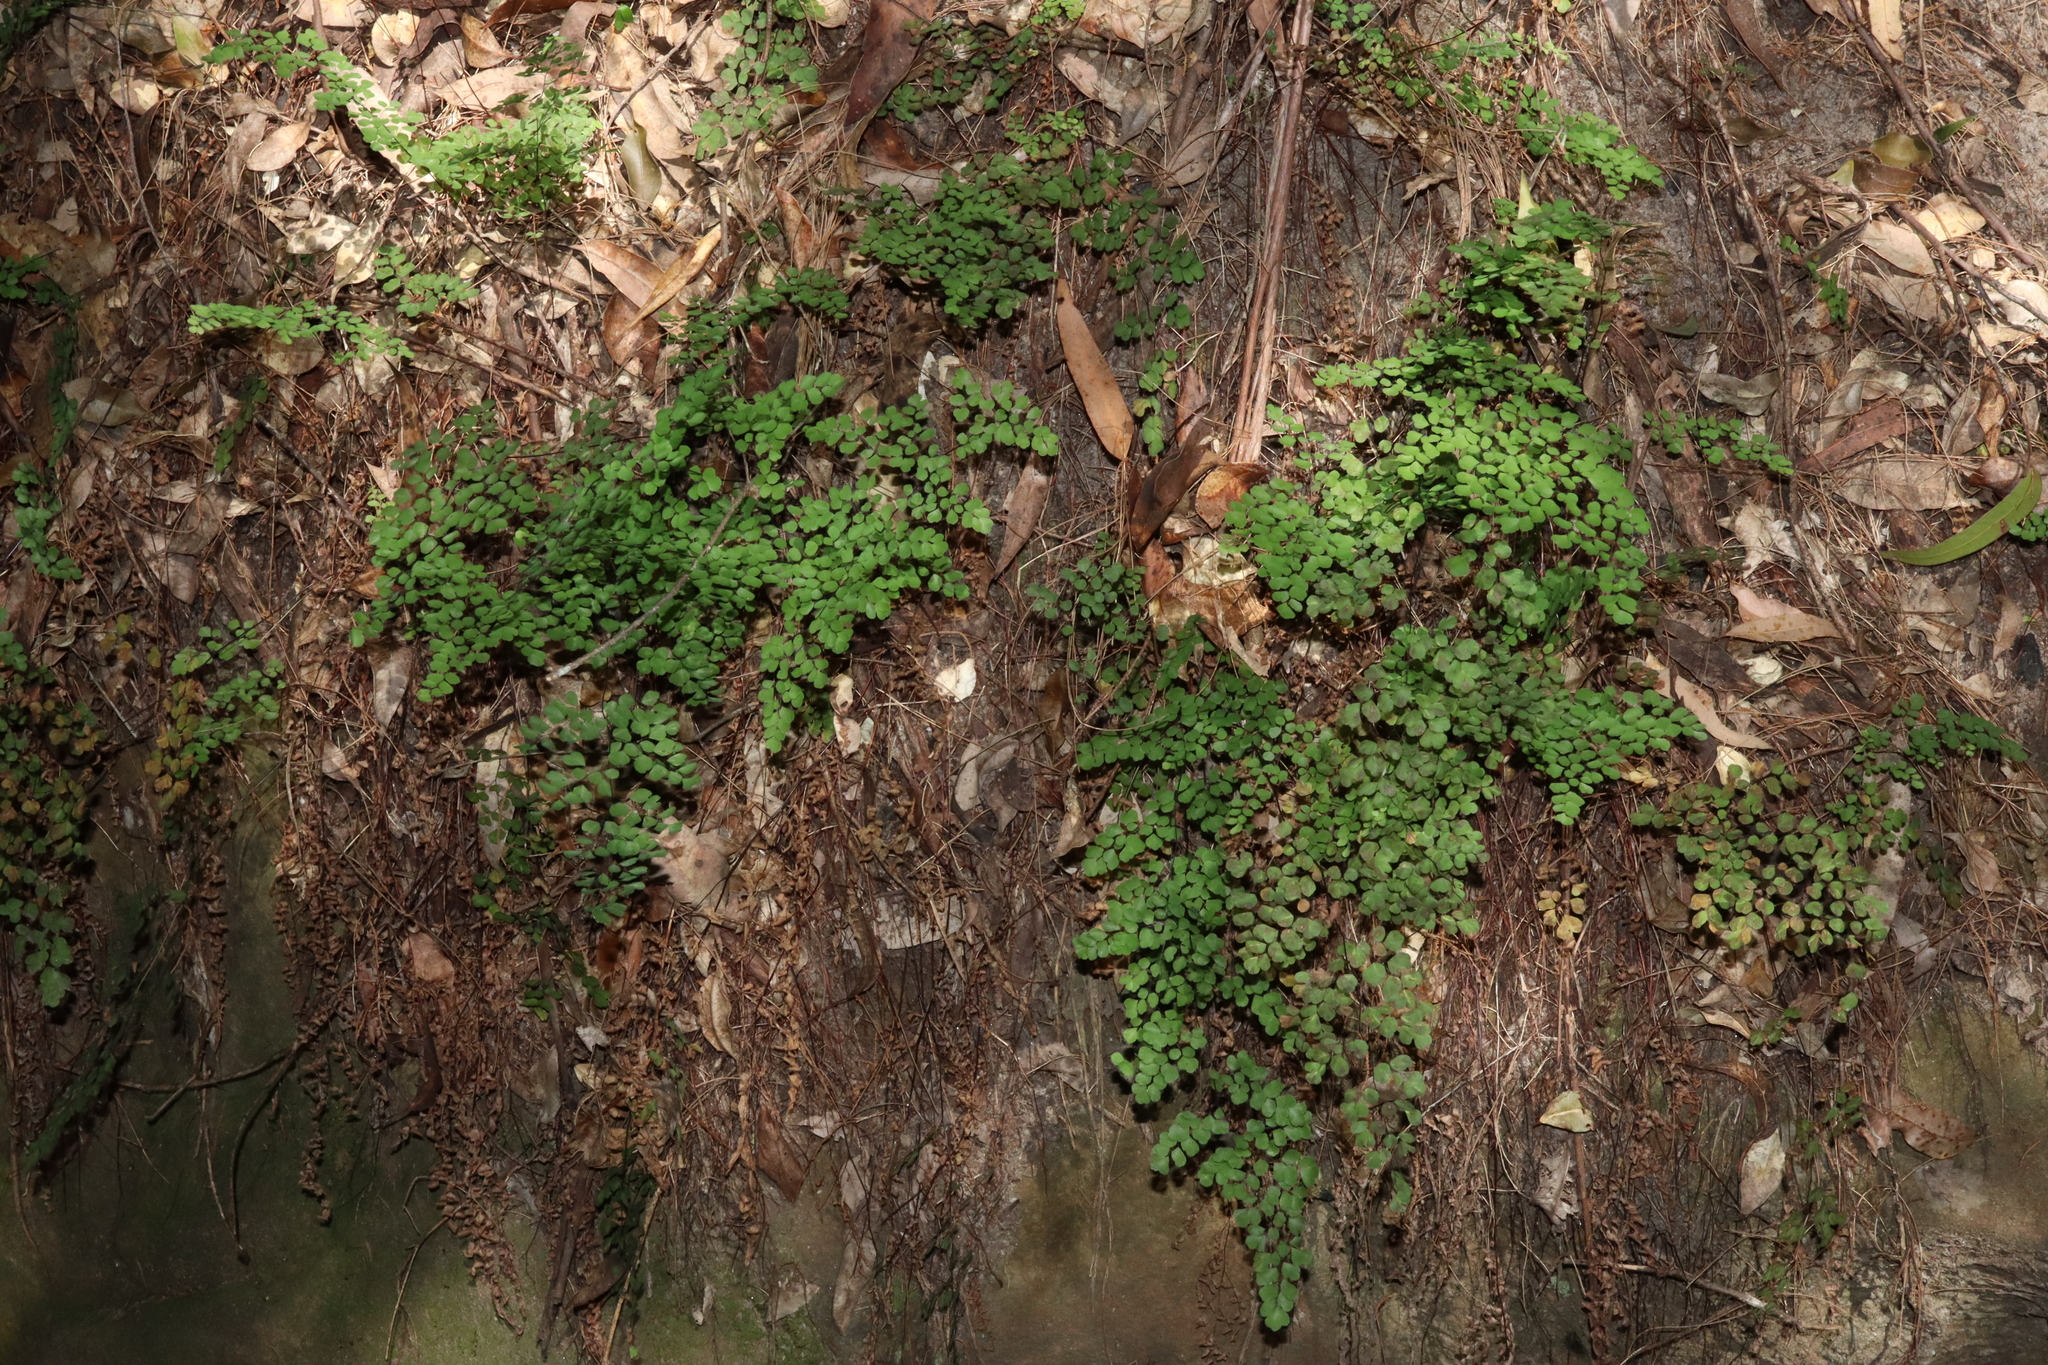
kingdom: Plantae
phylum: Tracheophyta
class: Polypodiopsida
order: Polypodiales
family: Pteridaceae
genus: Adiantum
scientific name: Adiantum aethiopicum
